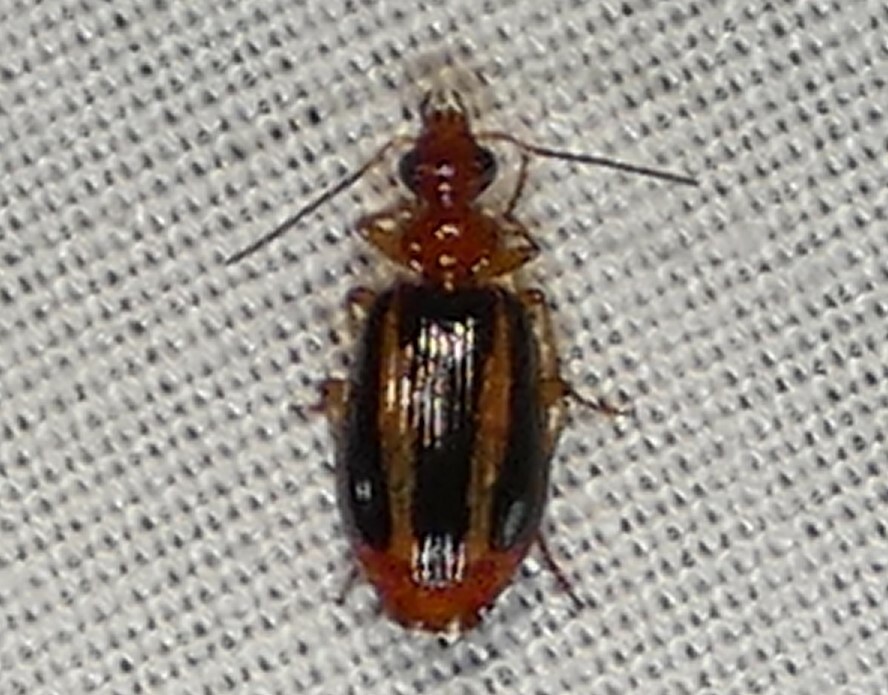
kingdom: Animalia
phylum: Arthropoda
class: Insecta
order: Coleoptera
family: Carabidae
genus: Lebia
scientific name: Lebia solea
